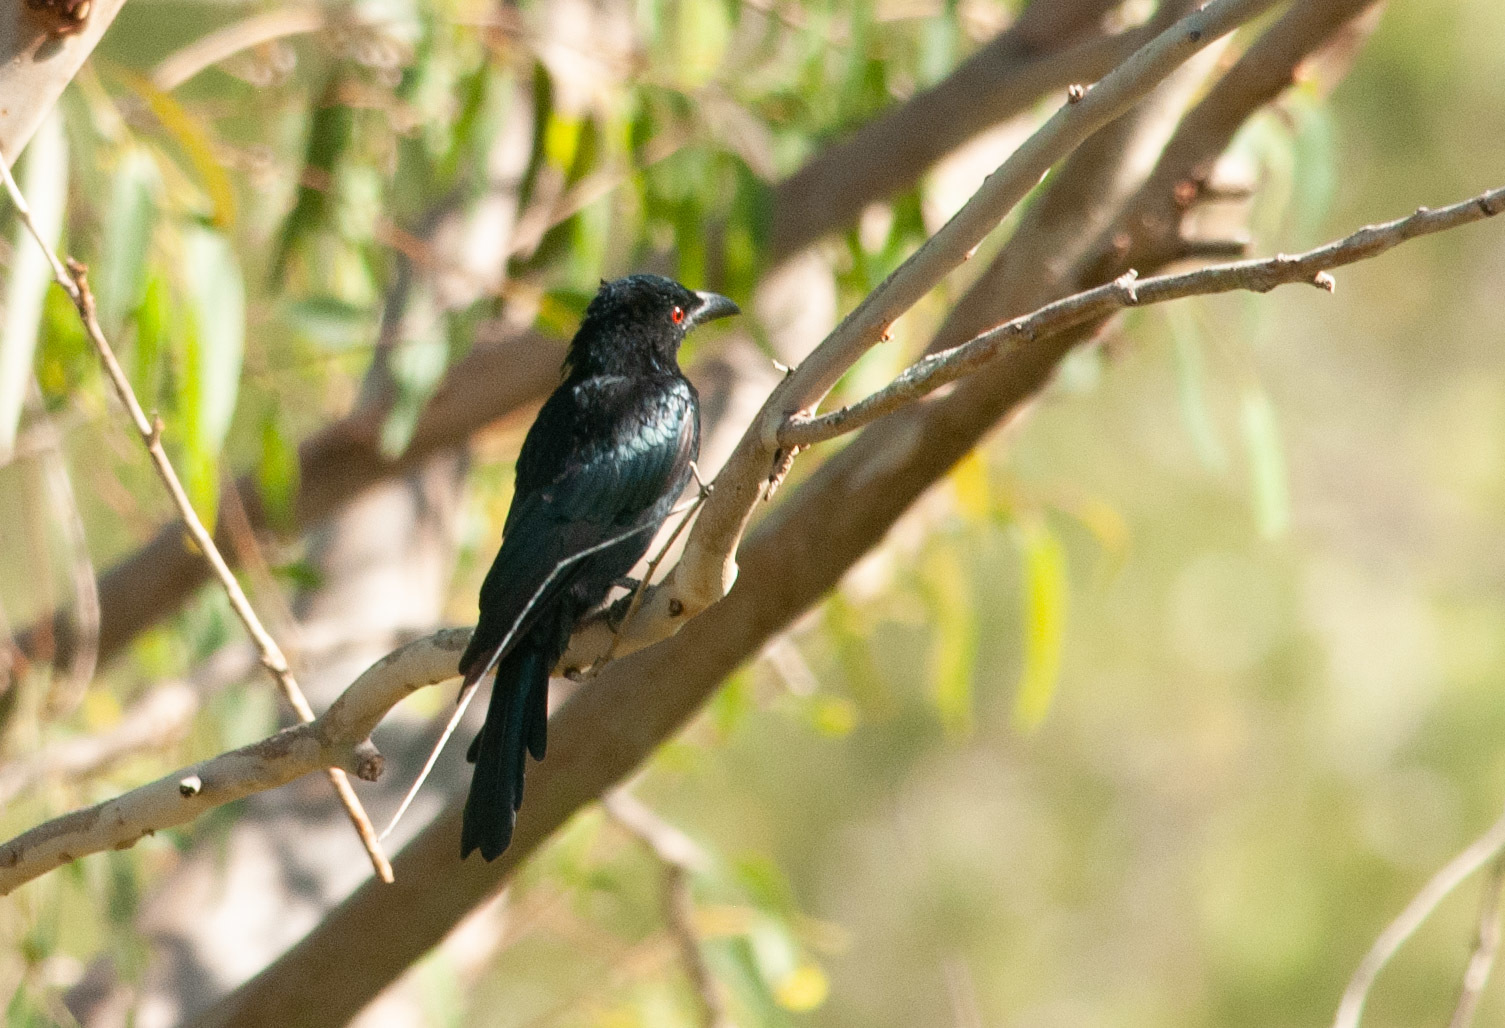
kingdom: Animalia
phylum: Chordata
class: Aves
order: Passeriformes
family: Dicruridae
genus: Dicrurus
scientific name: Dicrurus bracteatus
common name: Spangled drongo
